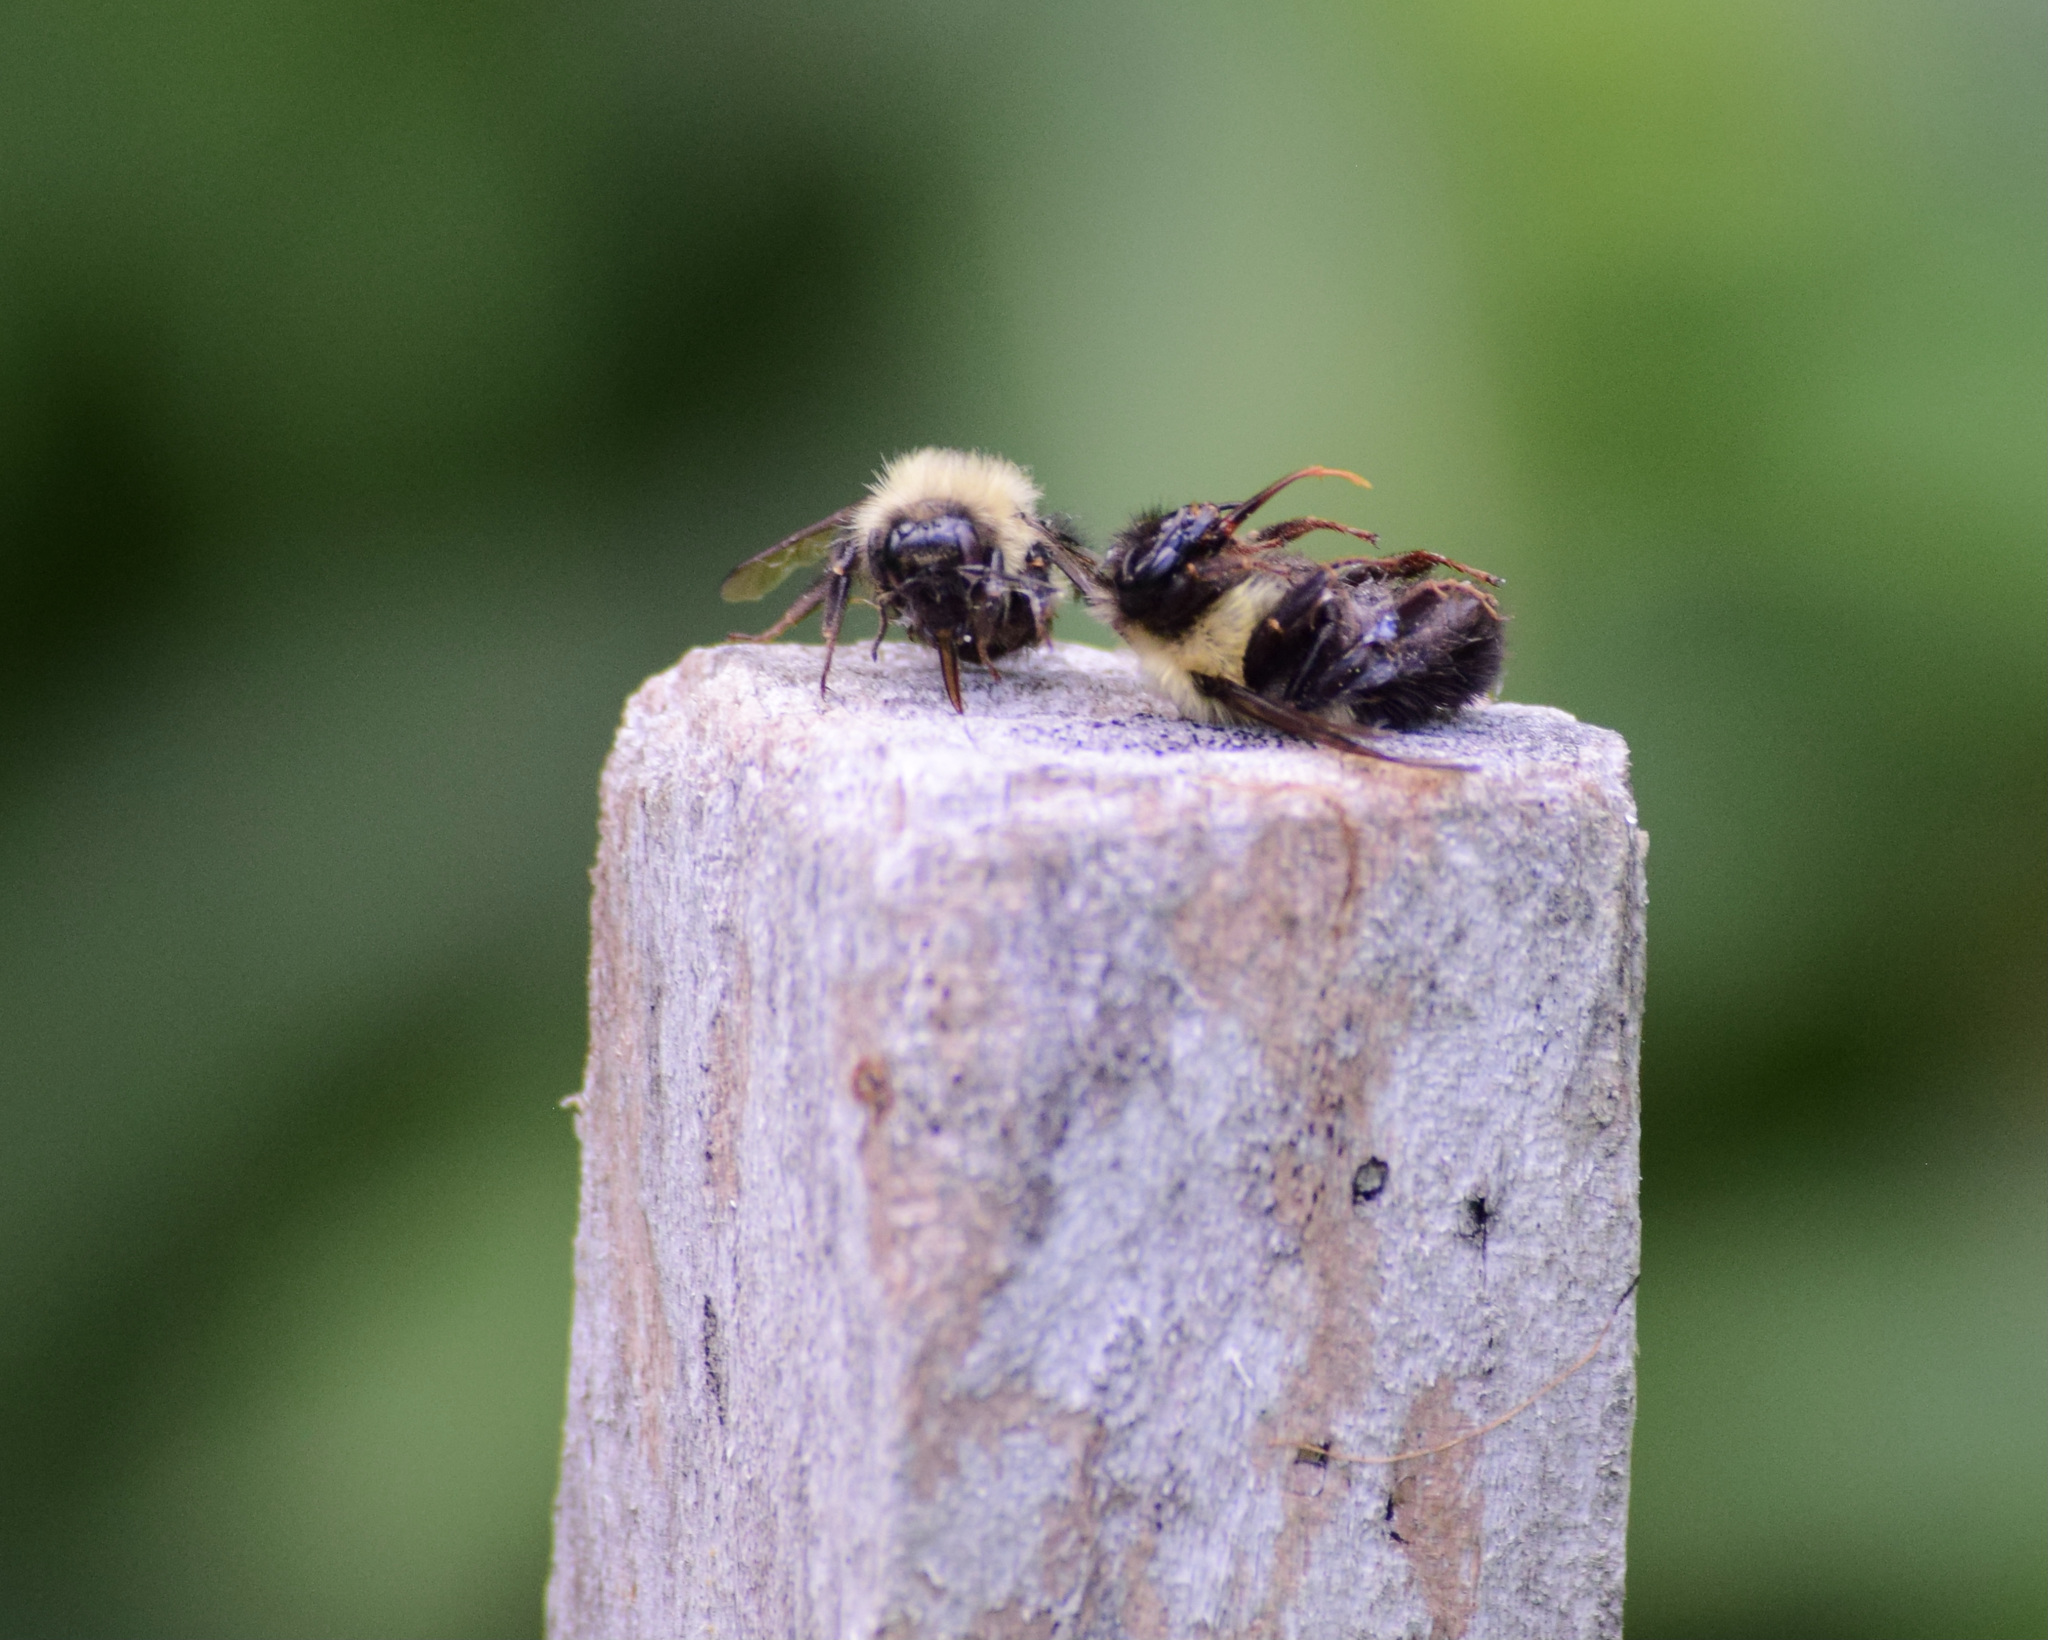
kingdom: Animalia
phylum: Arthropoda
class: Insecta
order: Hymenoptera
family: Apidae
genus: Bombus
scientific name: Bombus bimaculatus
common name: Two-spotted bumble bee
